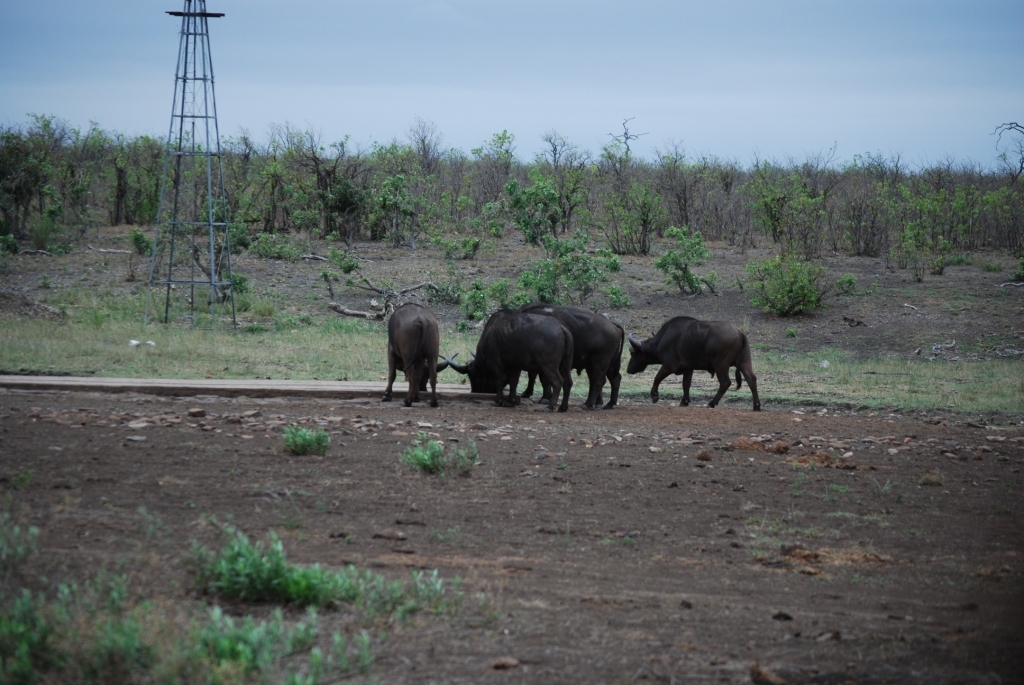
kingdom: Animalia
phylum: Chordata
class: Mammalia
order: Artiodactyla
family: Bovidae
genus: Syncerus
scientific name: Syncerus caffer
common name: African buffalo
